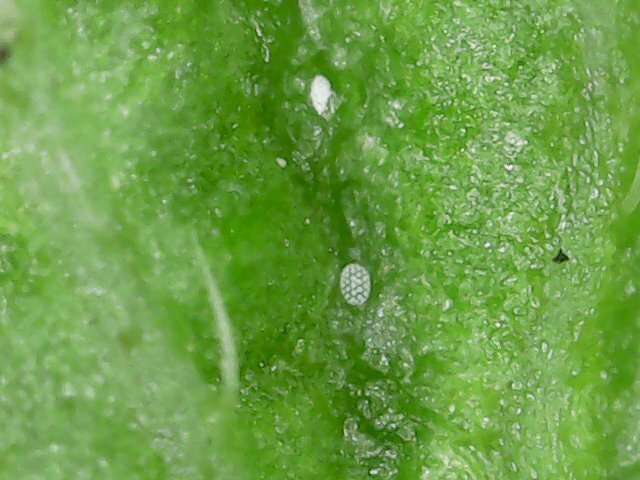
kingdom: Animalia
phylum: Arthropoda
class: Arachnida
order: Trombidiformes
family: Tarsonemidae
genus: Polyphagotarsonemus
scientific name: Polyphagotarsonemus latus
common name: Mite
